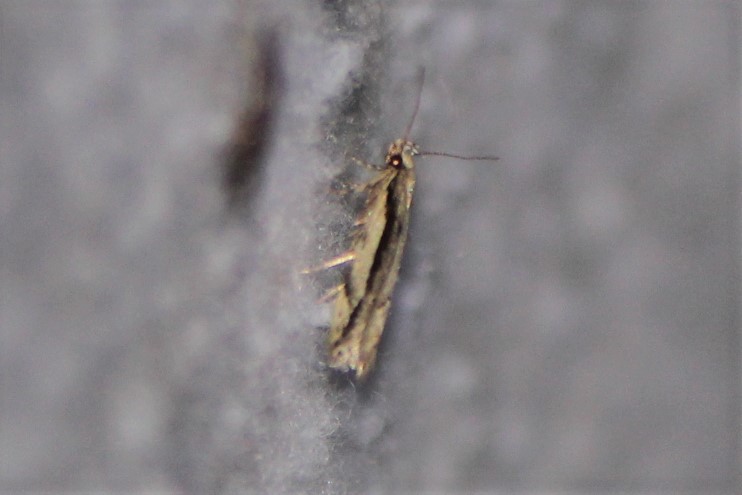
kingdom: Animalia
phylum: Arthropoda
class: Insecta
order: Lepidoptera
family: Gelechiidae
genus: Coleotechnites
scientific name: Coleotechnites albicostata
